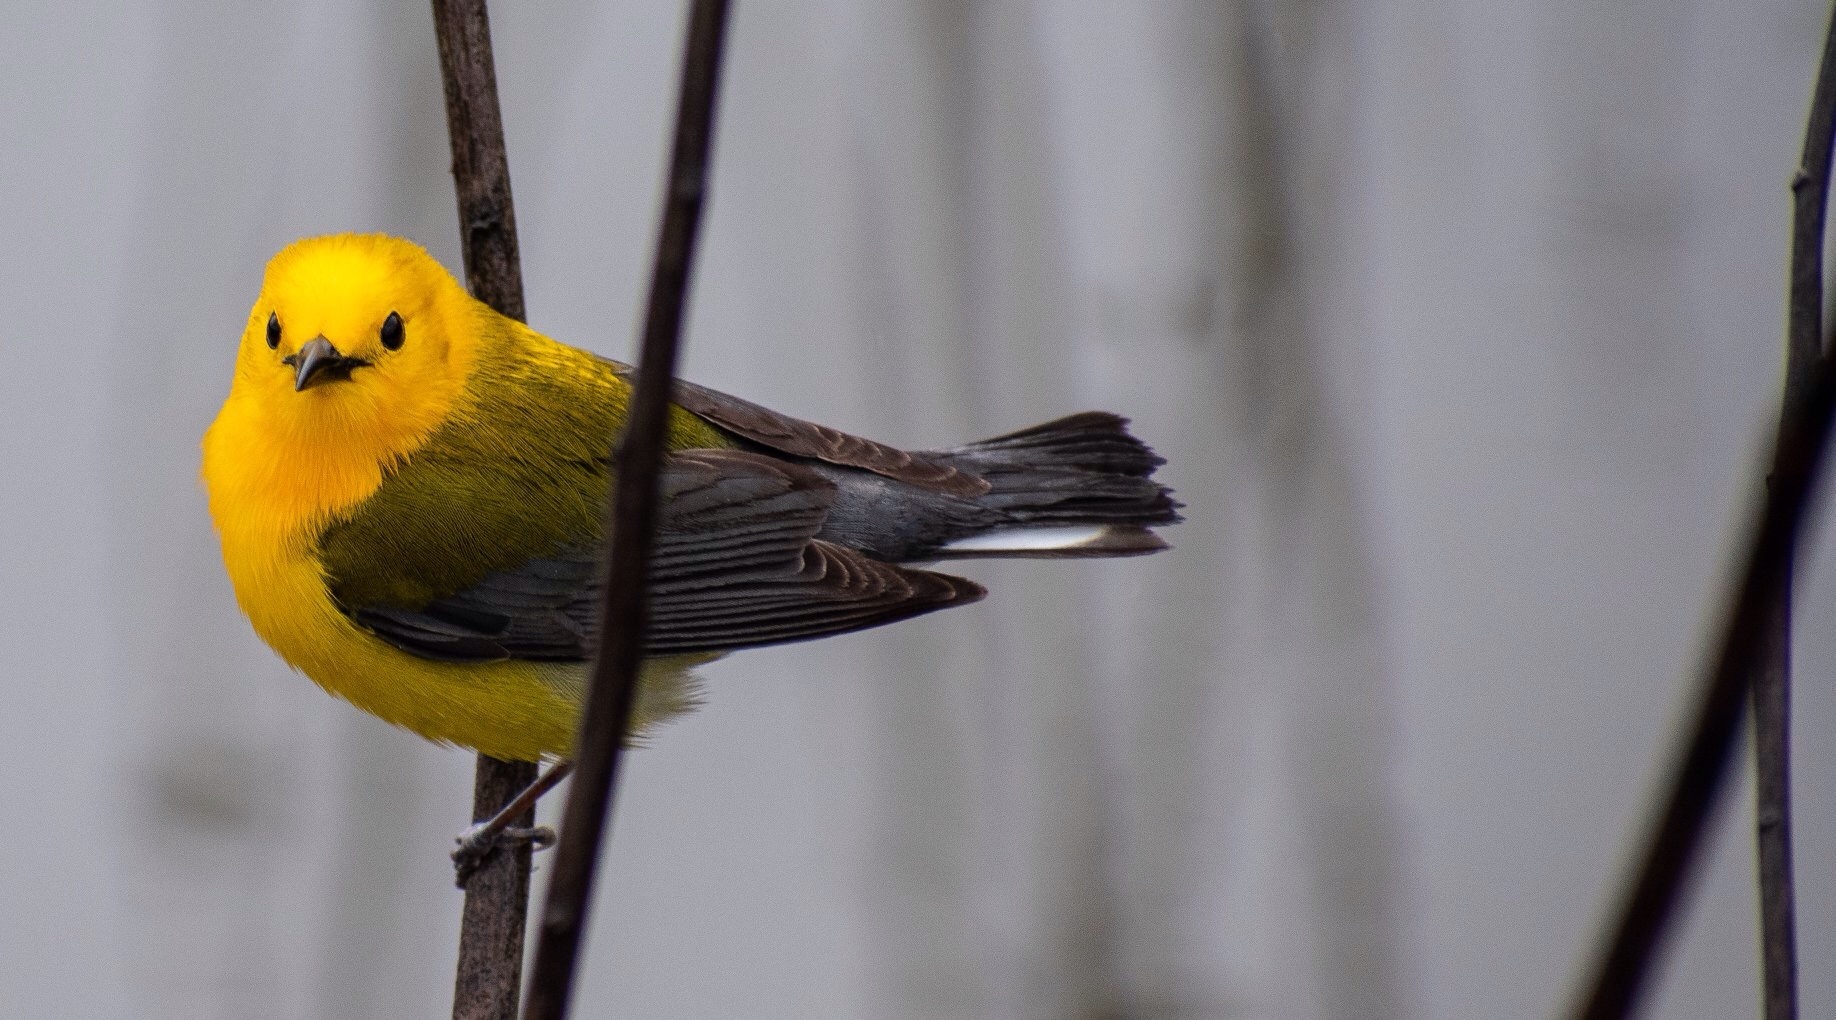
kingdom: Animalia
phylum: Chordata
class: Aves
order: Passeriformes
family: Parulidae
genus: Protonotaria
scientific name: Protonotaria citrea
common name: Prothonotary warbler
